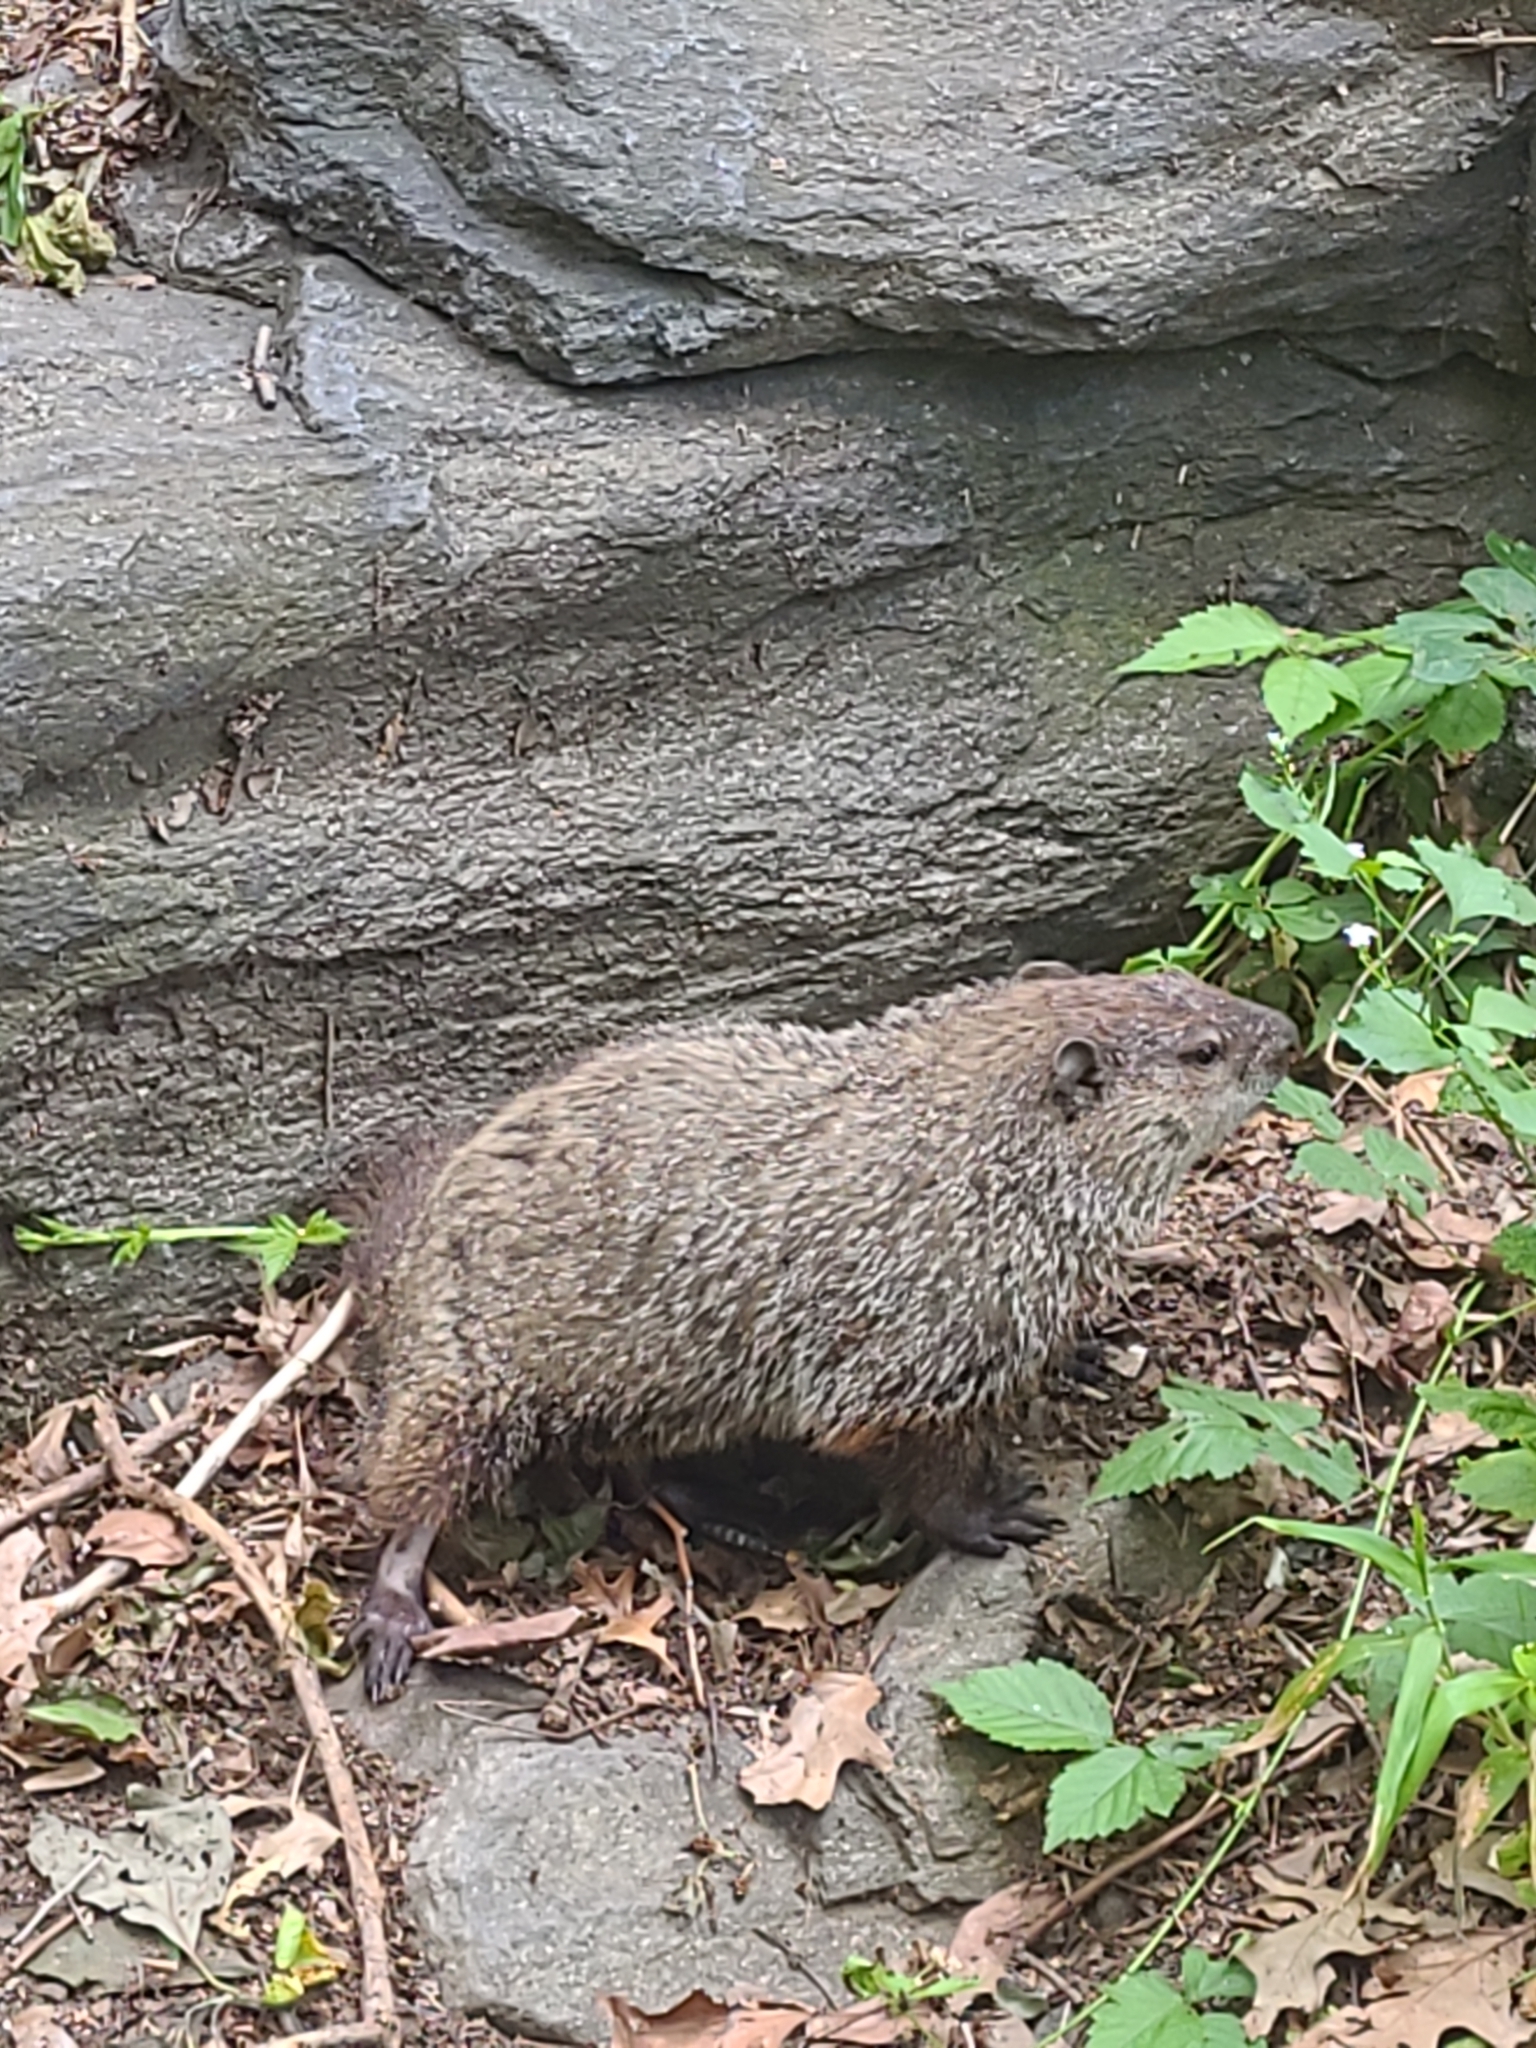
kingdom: Animalia
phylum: Chordata
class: Mammalia
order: Rodentia
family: Sciuridae
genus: Marmota
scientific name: Marmota monax
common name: Groundhog
